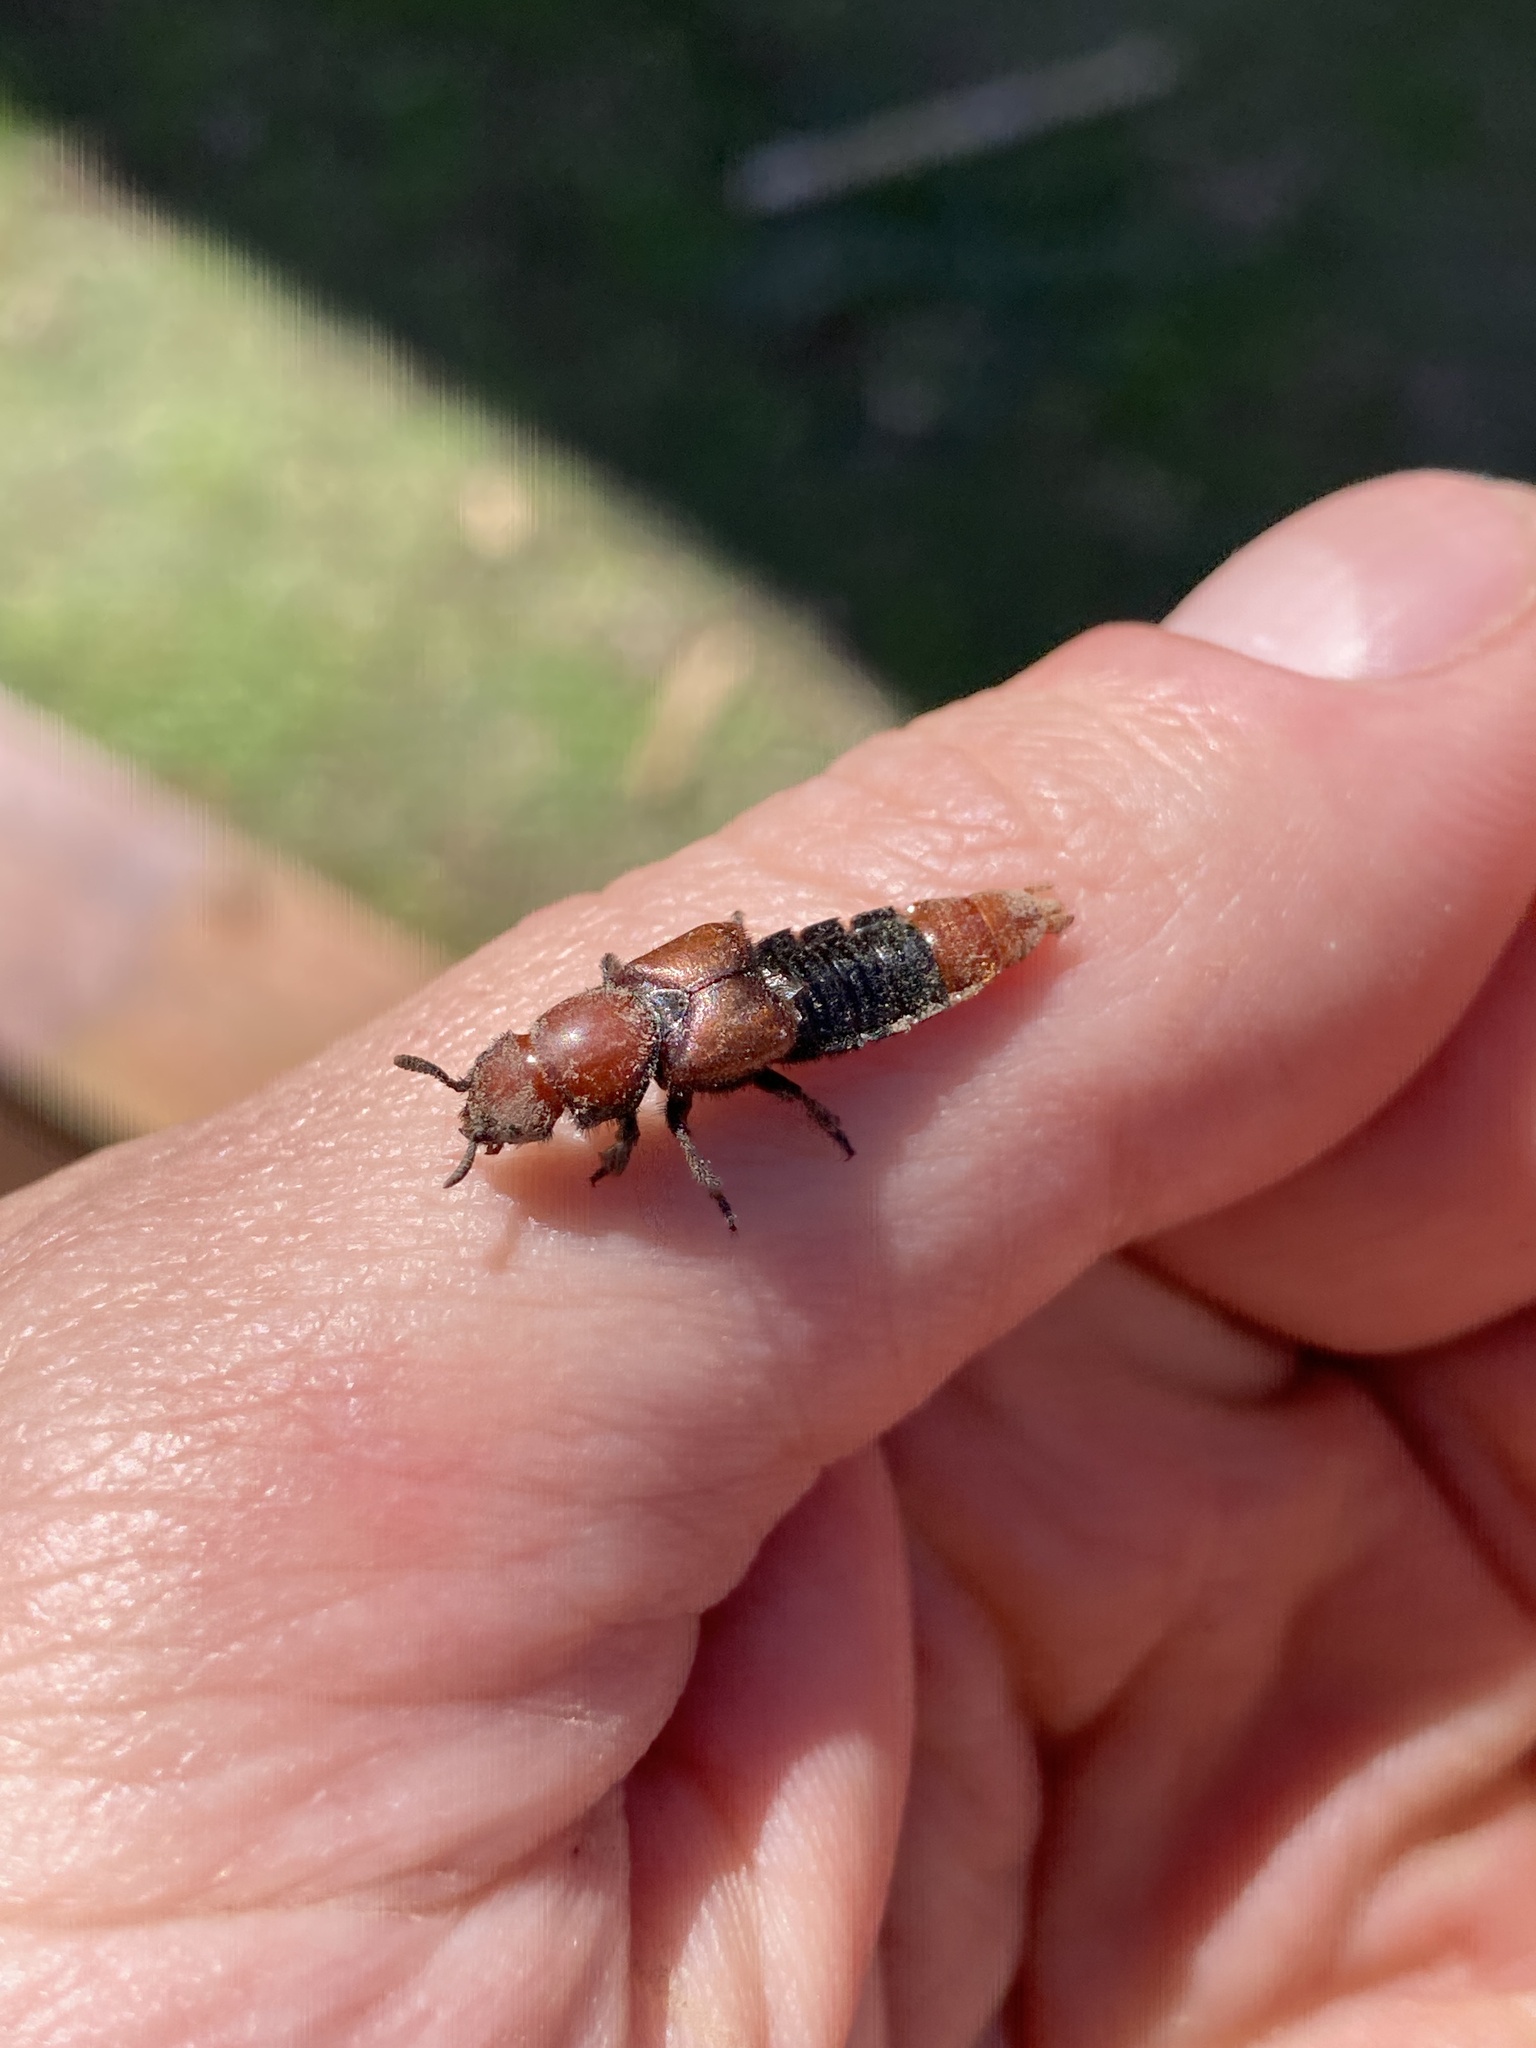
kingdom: Animalia
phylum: Arthropoda
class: Insecta
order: Coleoptera
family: Staphylinidae
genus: Haematodes
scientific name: Haematodes bicolor
